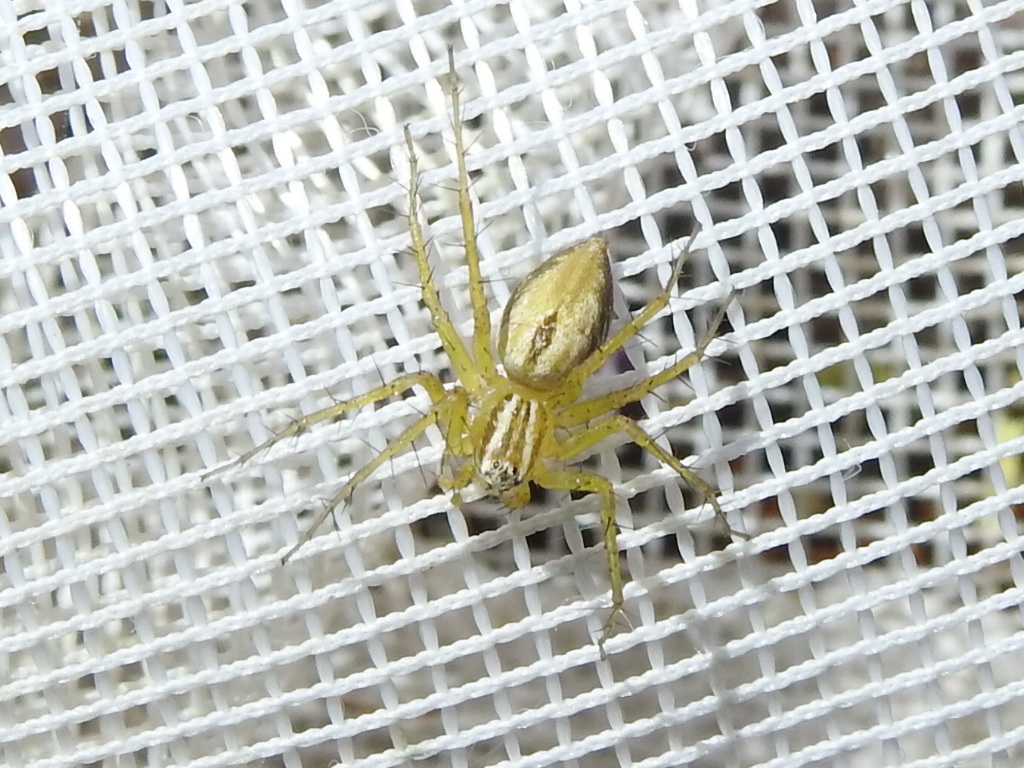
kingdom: Animalia
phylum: Arthropoda
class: Arachnida
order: Araneae
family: Oxyopidae
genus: Oxyopes
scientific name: Oxyopes salticus
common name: Lynx spiders
